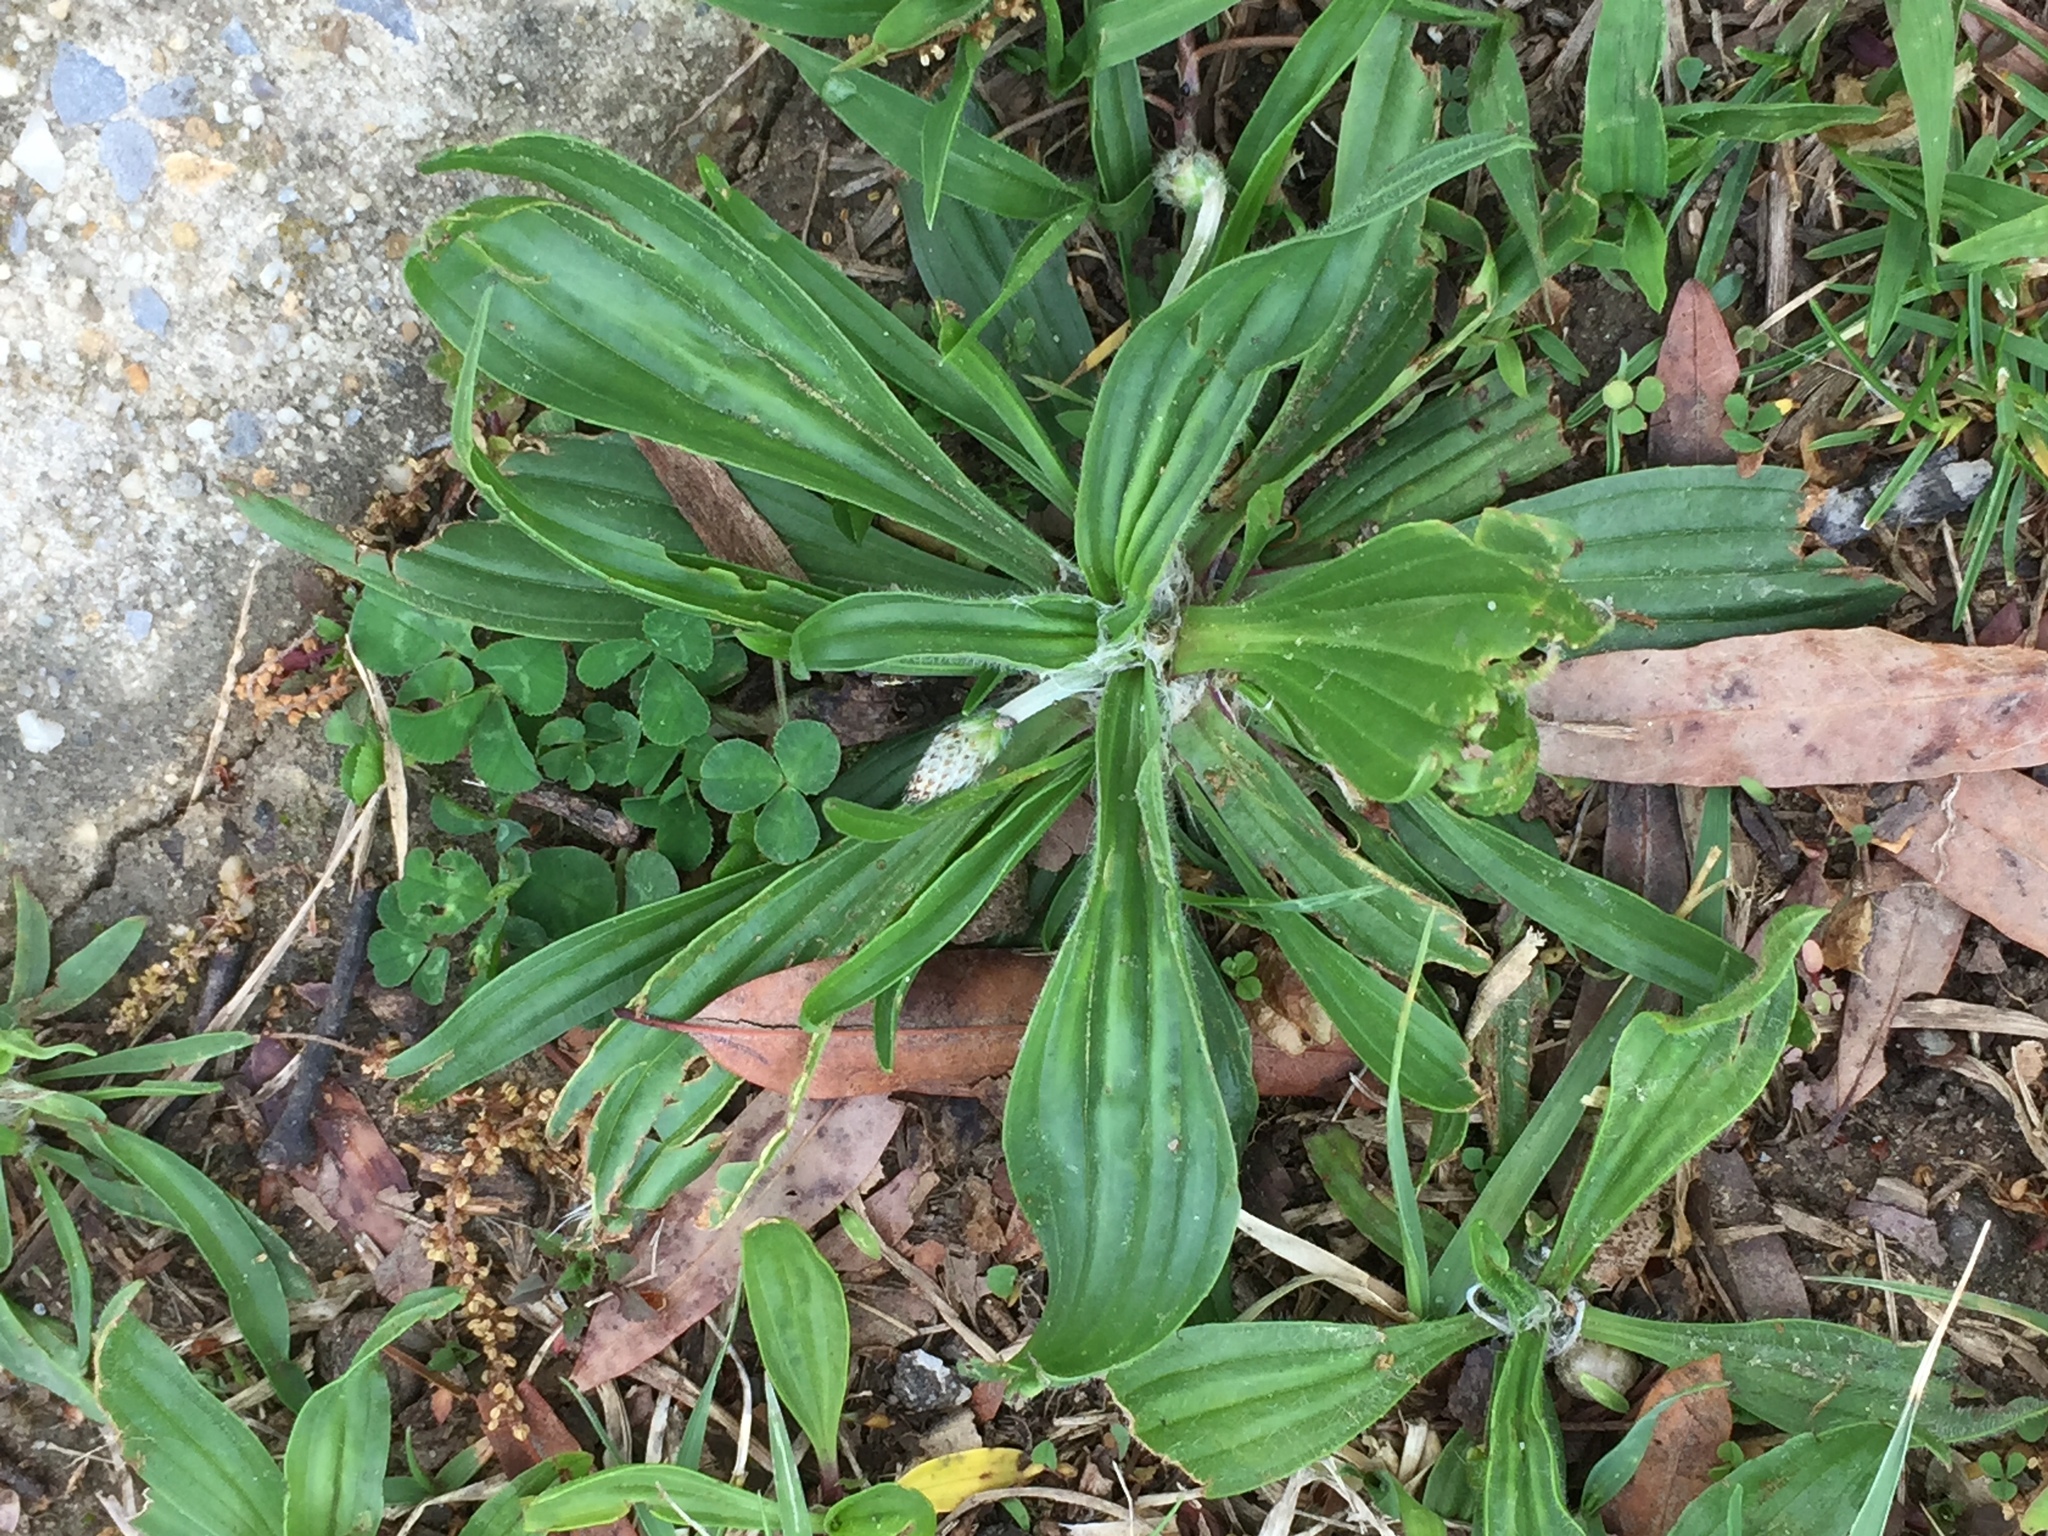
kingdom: Plantae
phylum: Tracheophyta
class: Magnoliopsida
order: Lamiales
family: Plantaginaceae
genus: Plantago
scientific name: Plantago lanceolata
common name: Ribwort plantain
